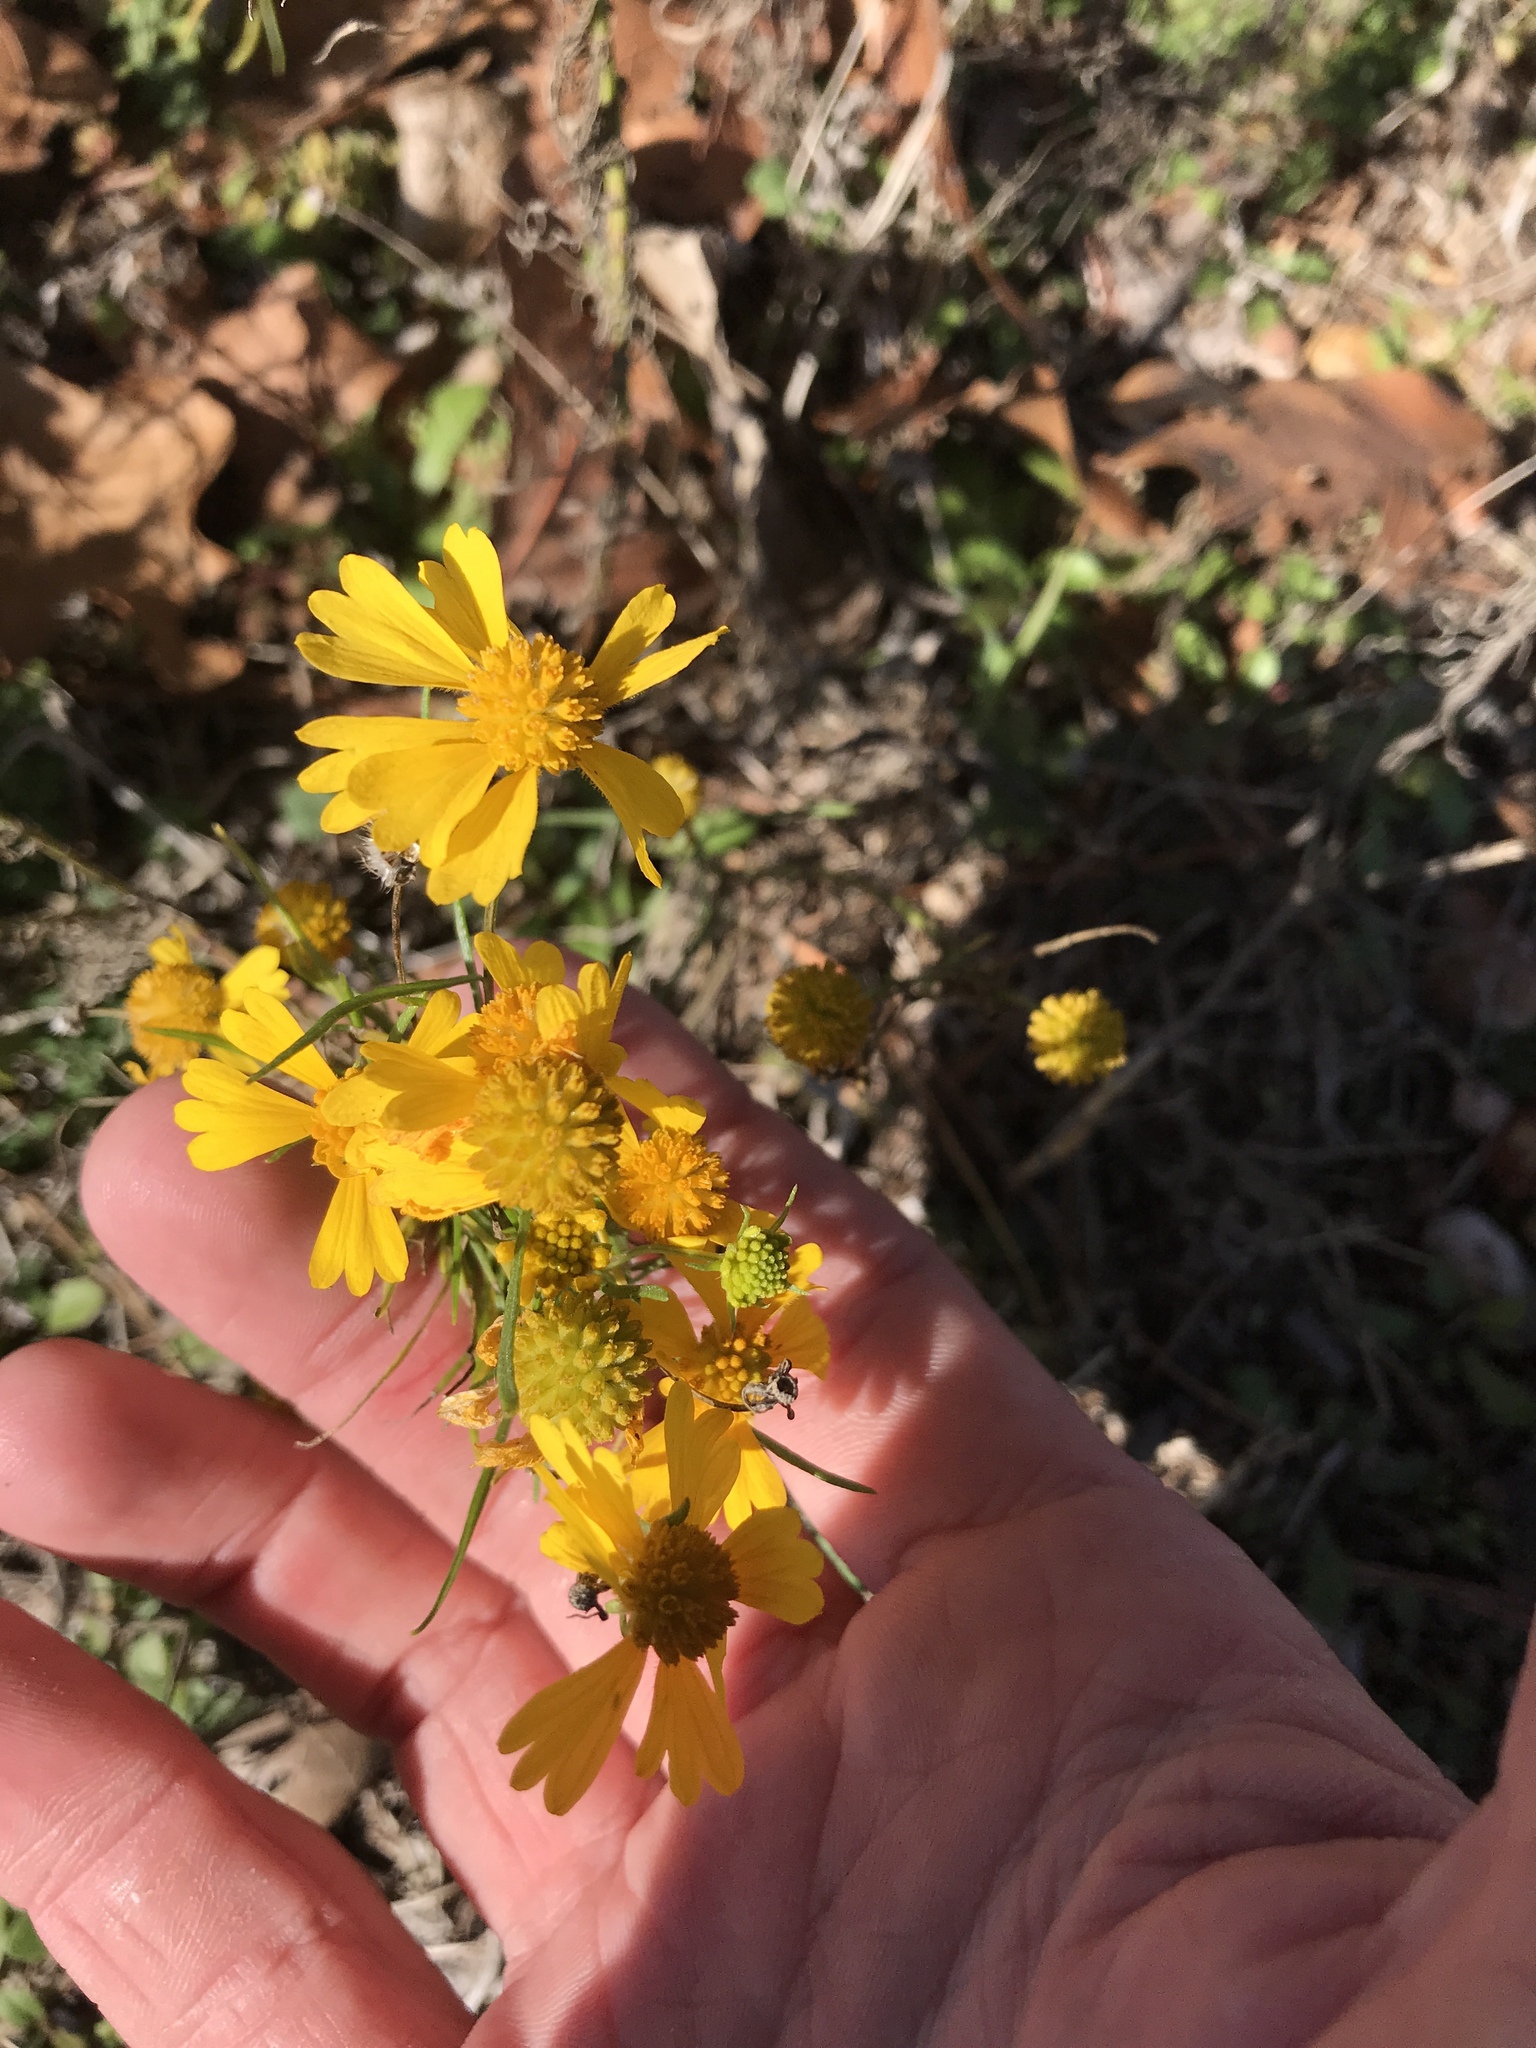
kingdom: Plantae
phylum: Tracheophyta
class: Magnoliopsida
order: Asterales
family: Asteraceae
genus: Helenium
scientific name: Helenium amarum
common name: Bitter sneezeweed
